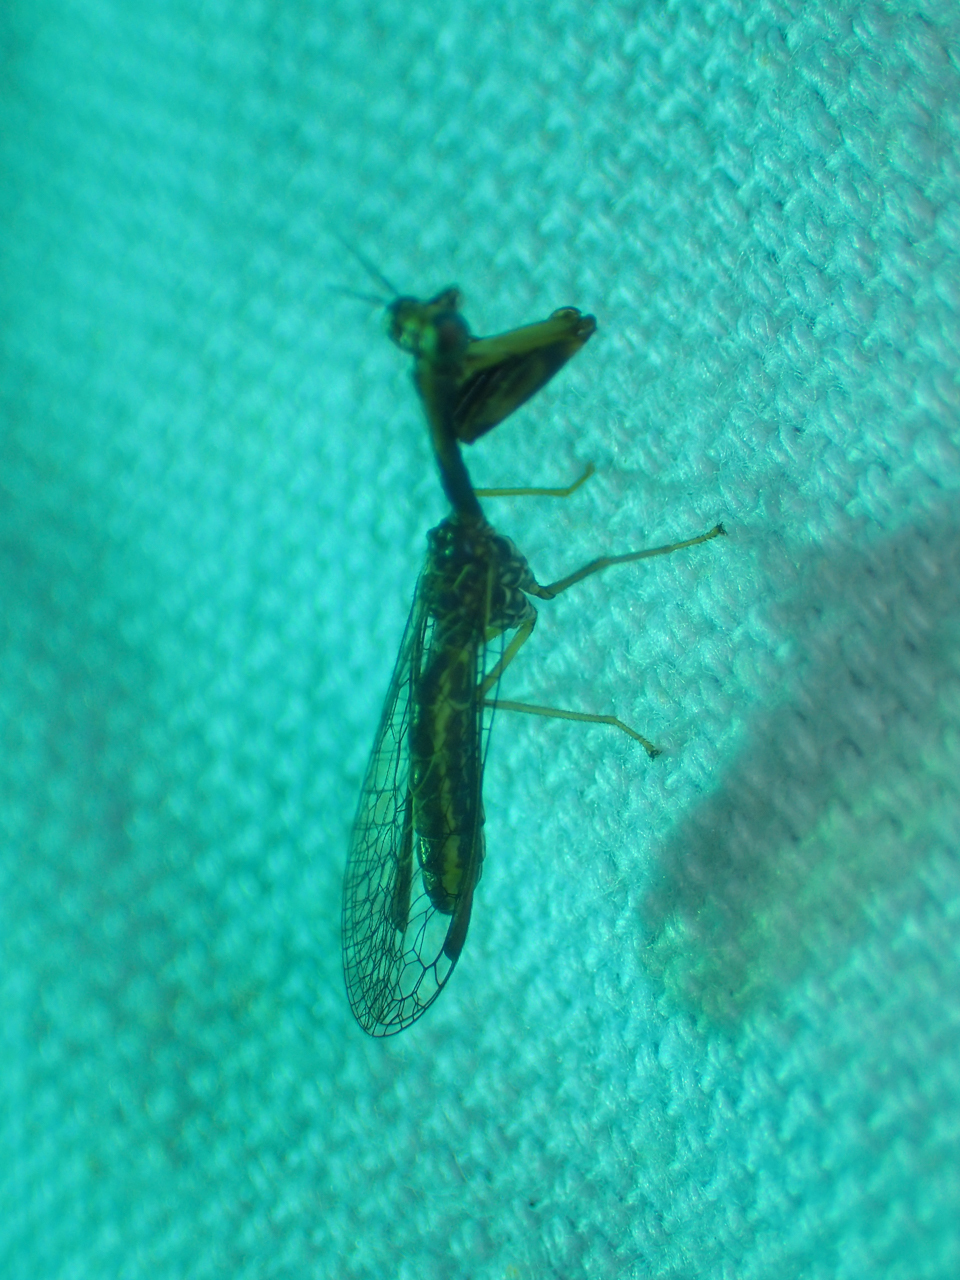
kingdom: Animalia
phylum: Arthropoda
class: Insecta
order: Neuroptera
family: Mantispidae
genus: Leptomantispa
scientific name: Leptomantispa pulchella
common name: Stevens's mantidfly
